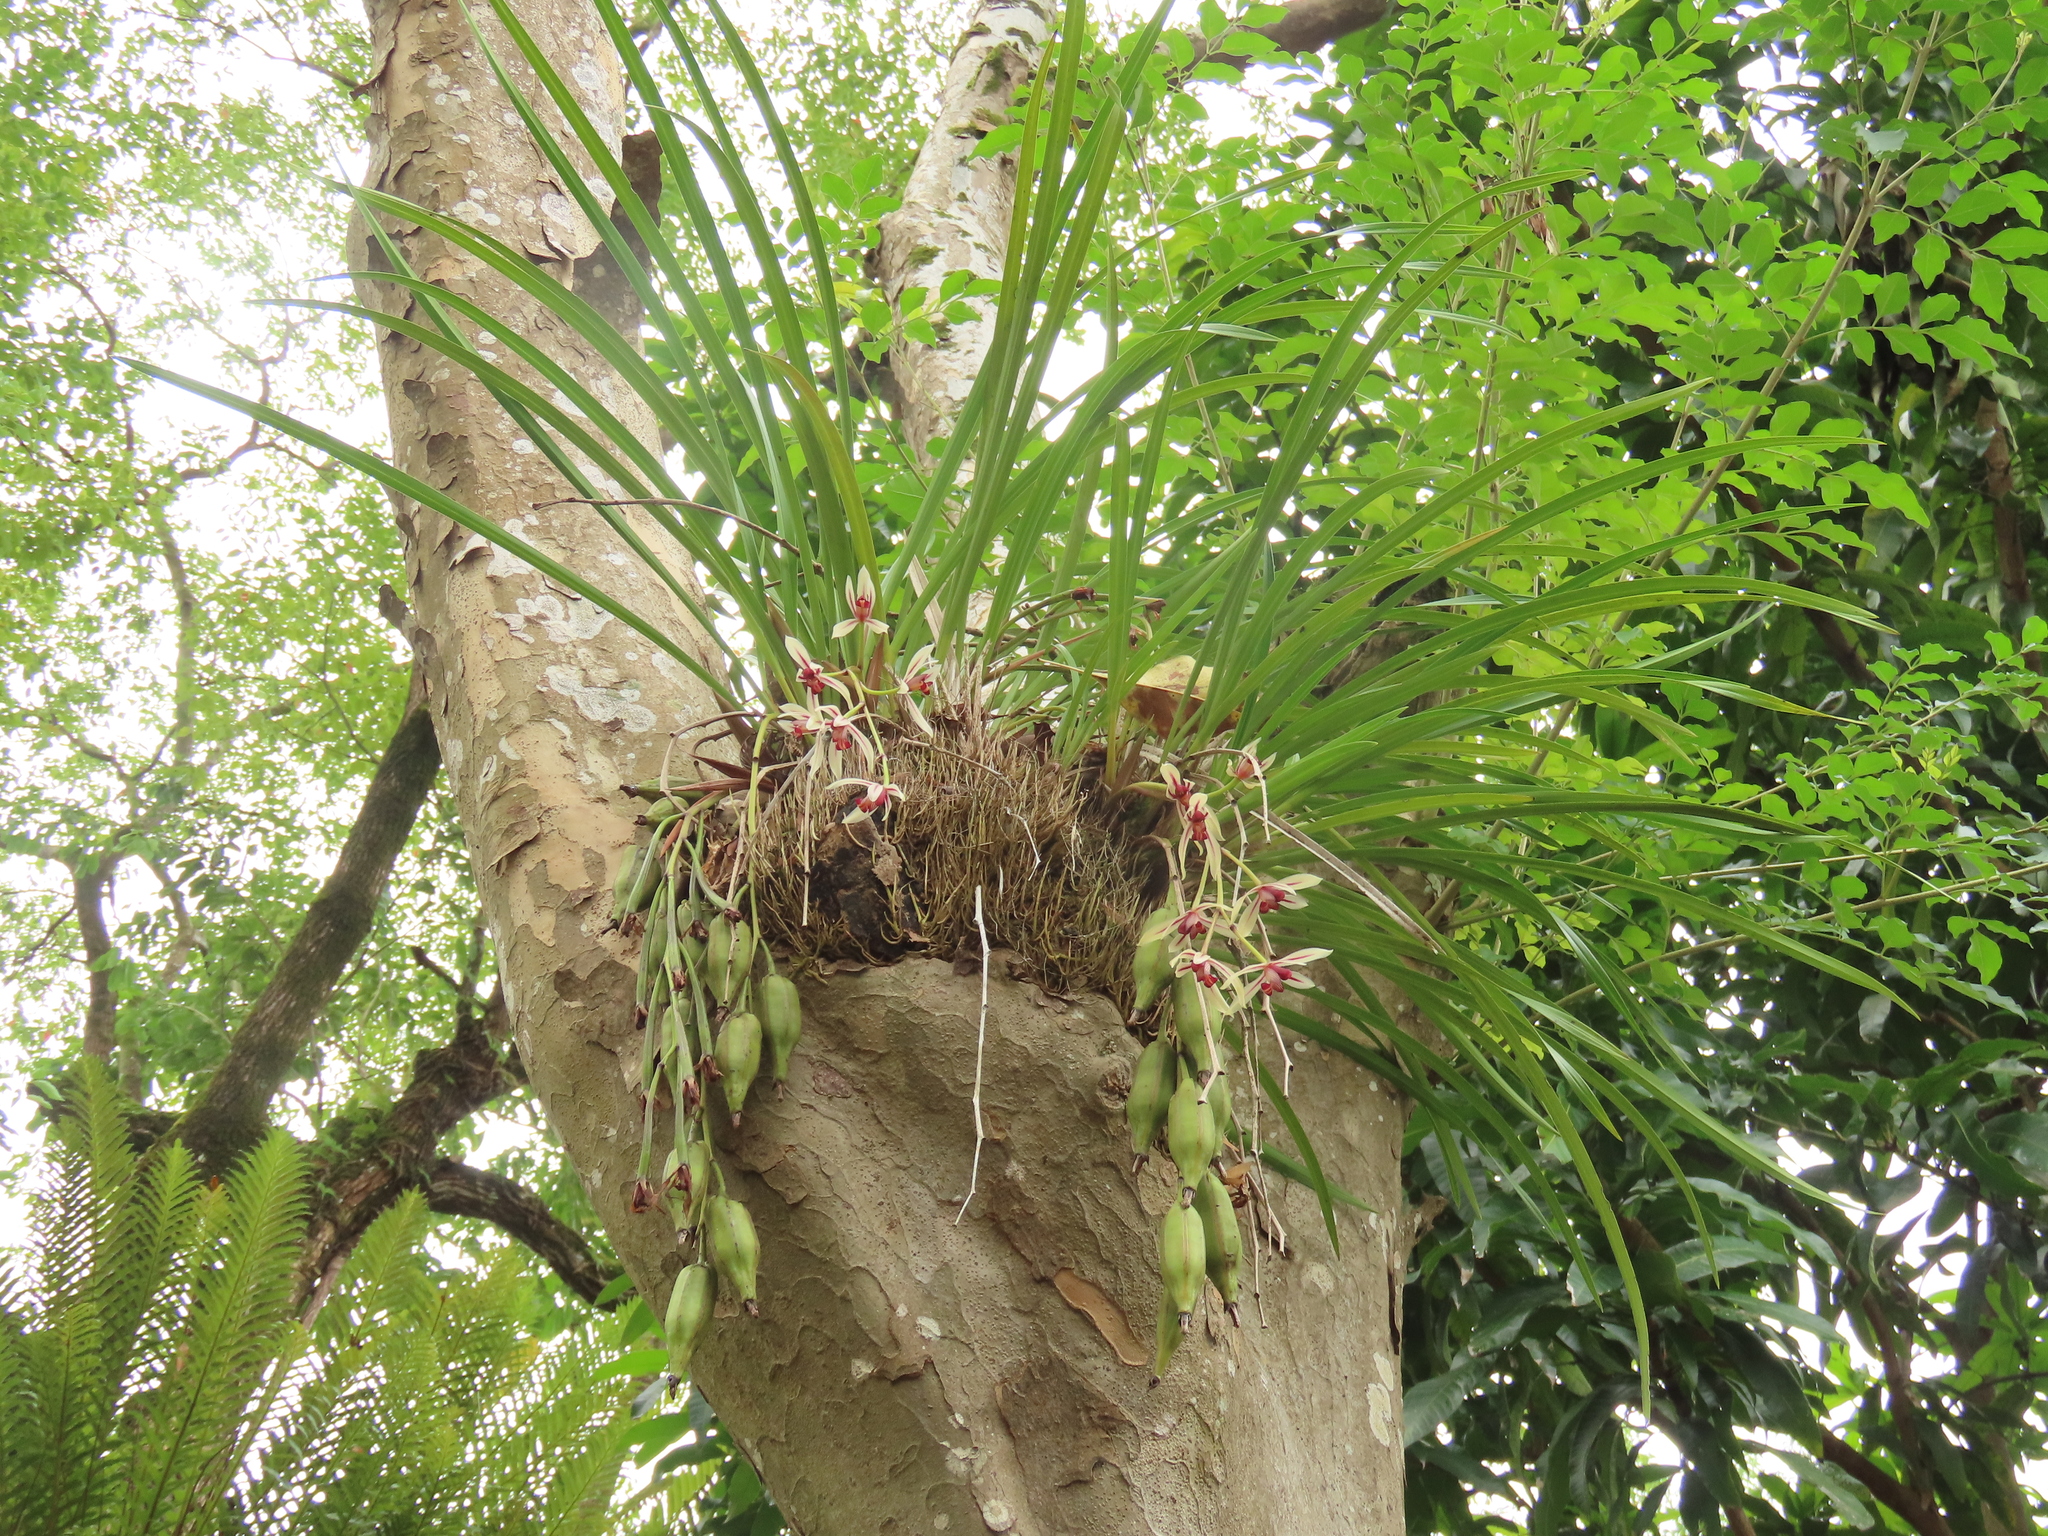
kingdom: Plantae
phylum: Tracheophyta
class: Liliopsida
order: Asparagales
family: Orchidaceae
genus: Cymbidium
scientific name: Cymbidium dayanum
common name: Orchid
